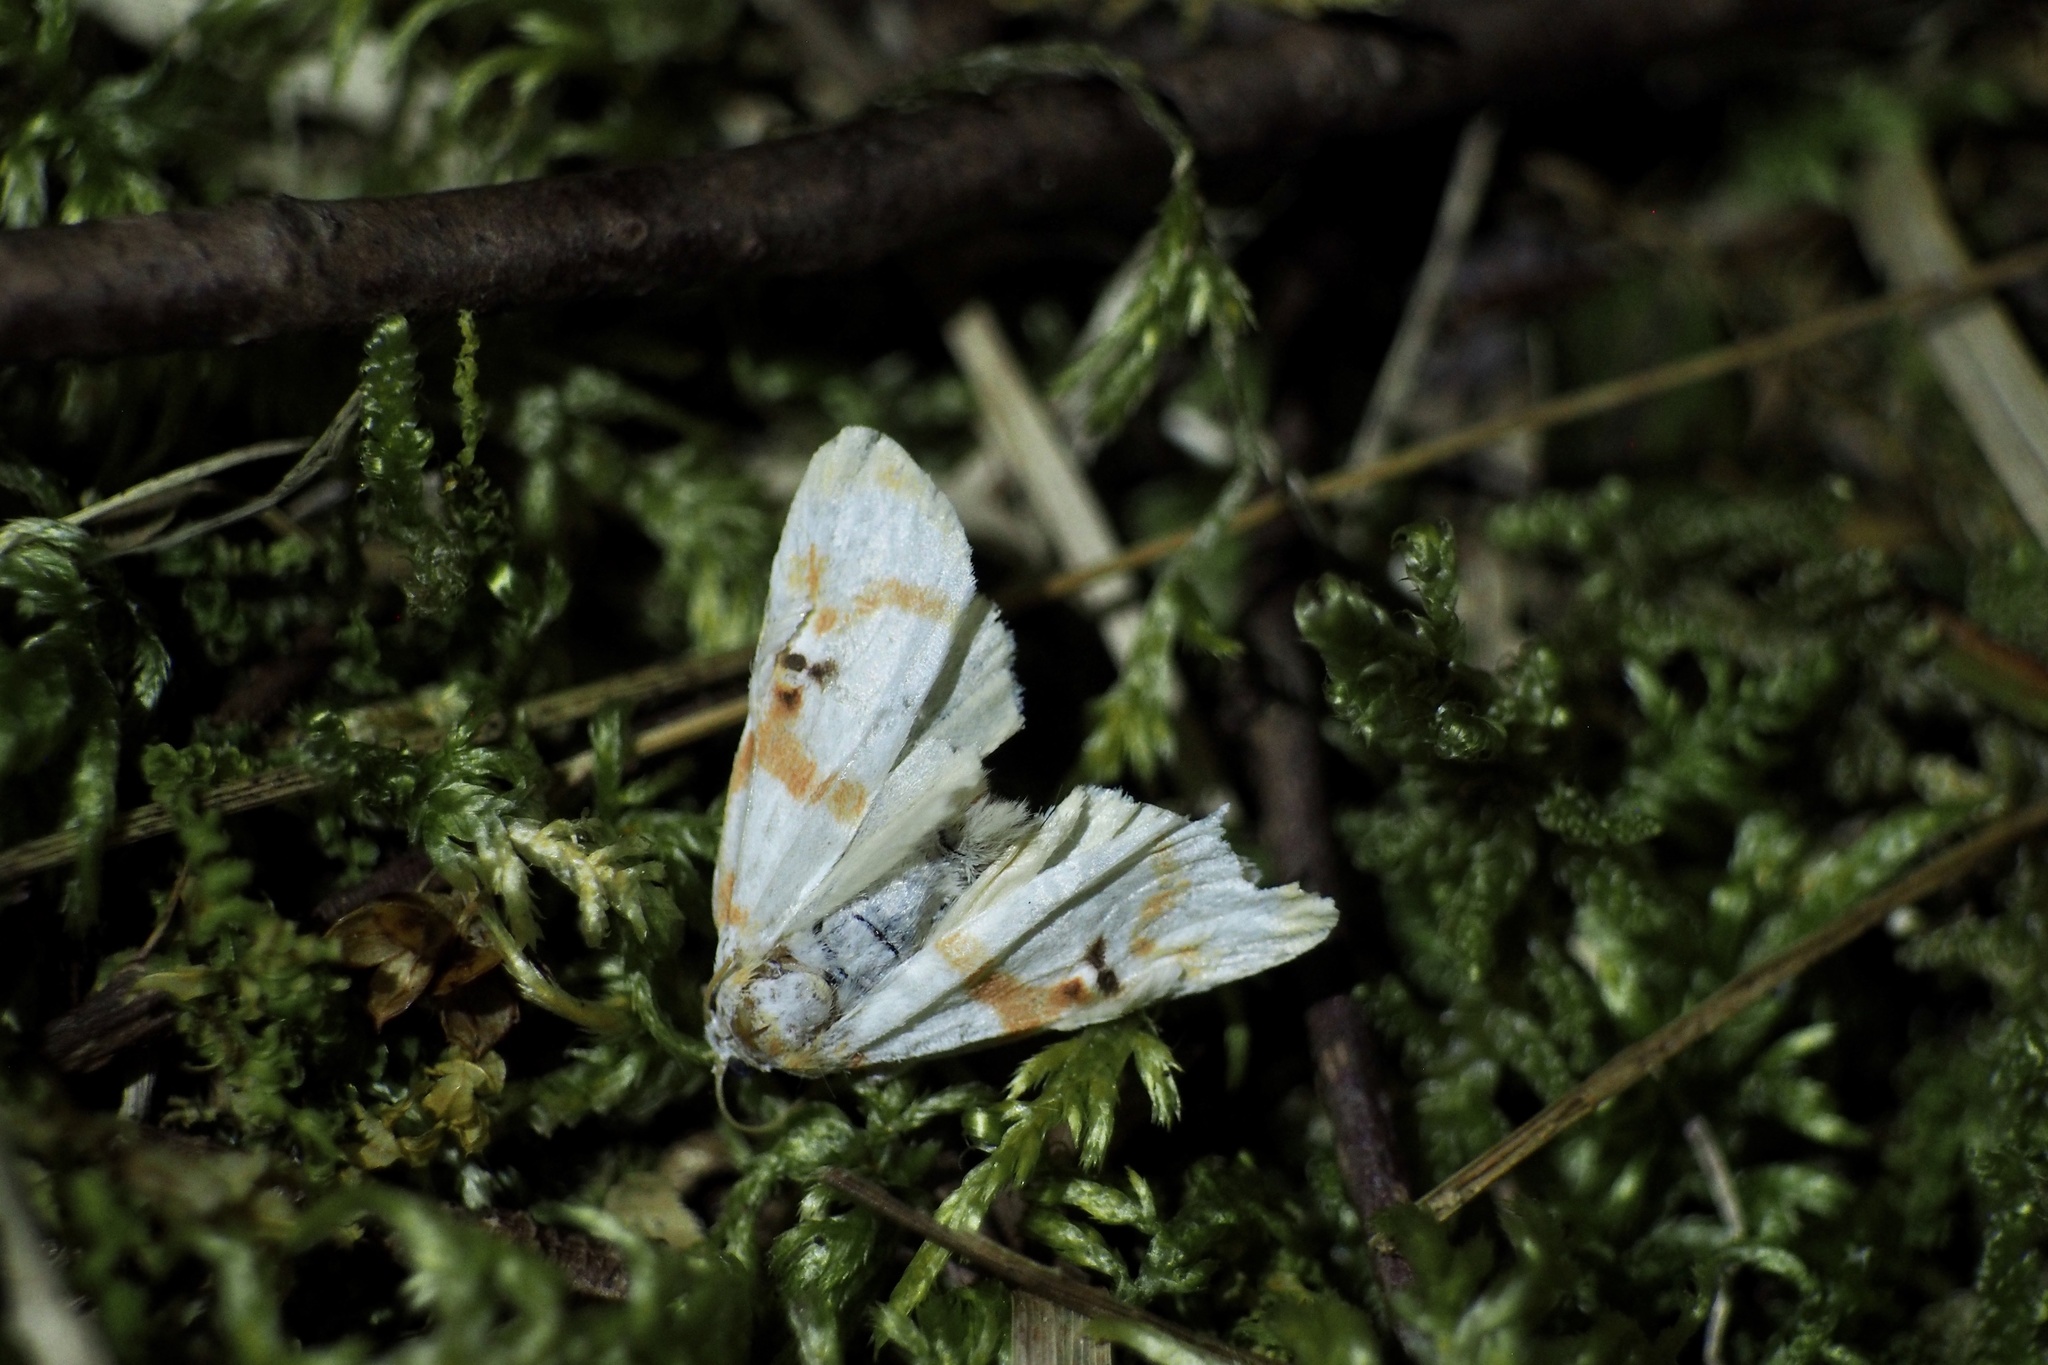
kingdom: Animalia
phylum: Arthropoda
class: Insecta
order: Lepidoptera
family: Erebidae
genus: Cyana
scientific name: Cyana hamata
